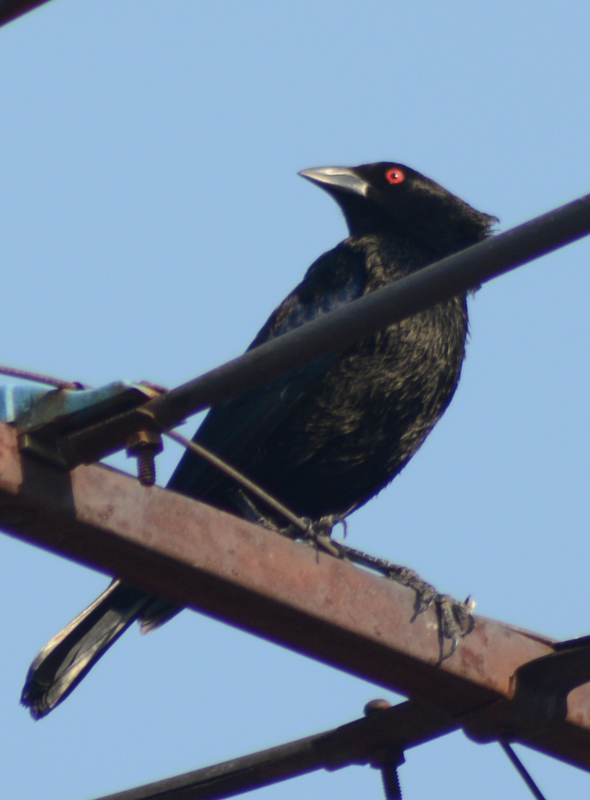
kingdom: Animalia
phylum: Chordata
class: Aves
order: Passeriformes
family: Icteridae
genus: Molothrus
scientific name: Molothrus aeneus
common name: Bronzed cowbird
